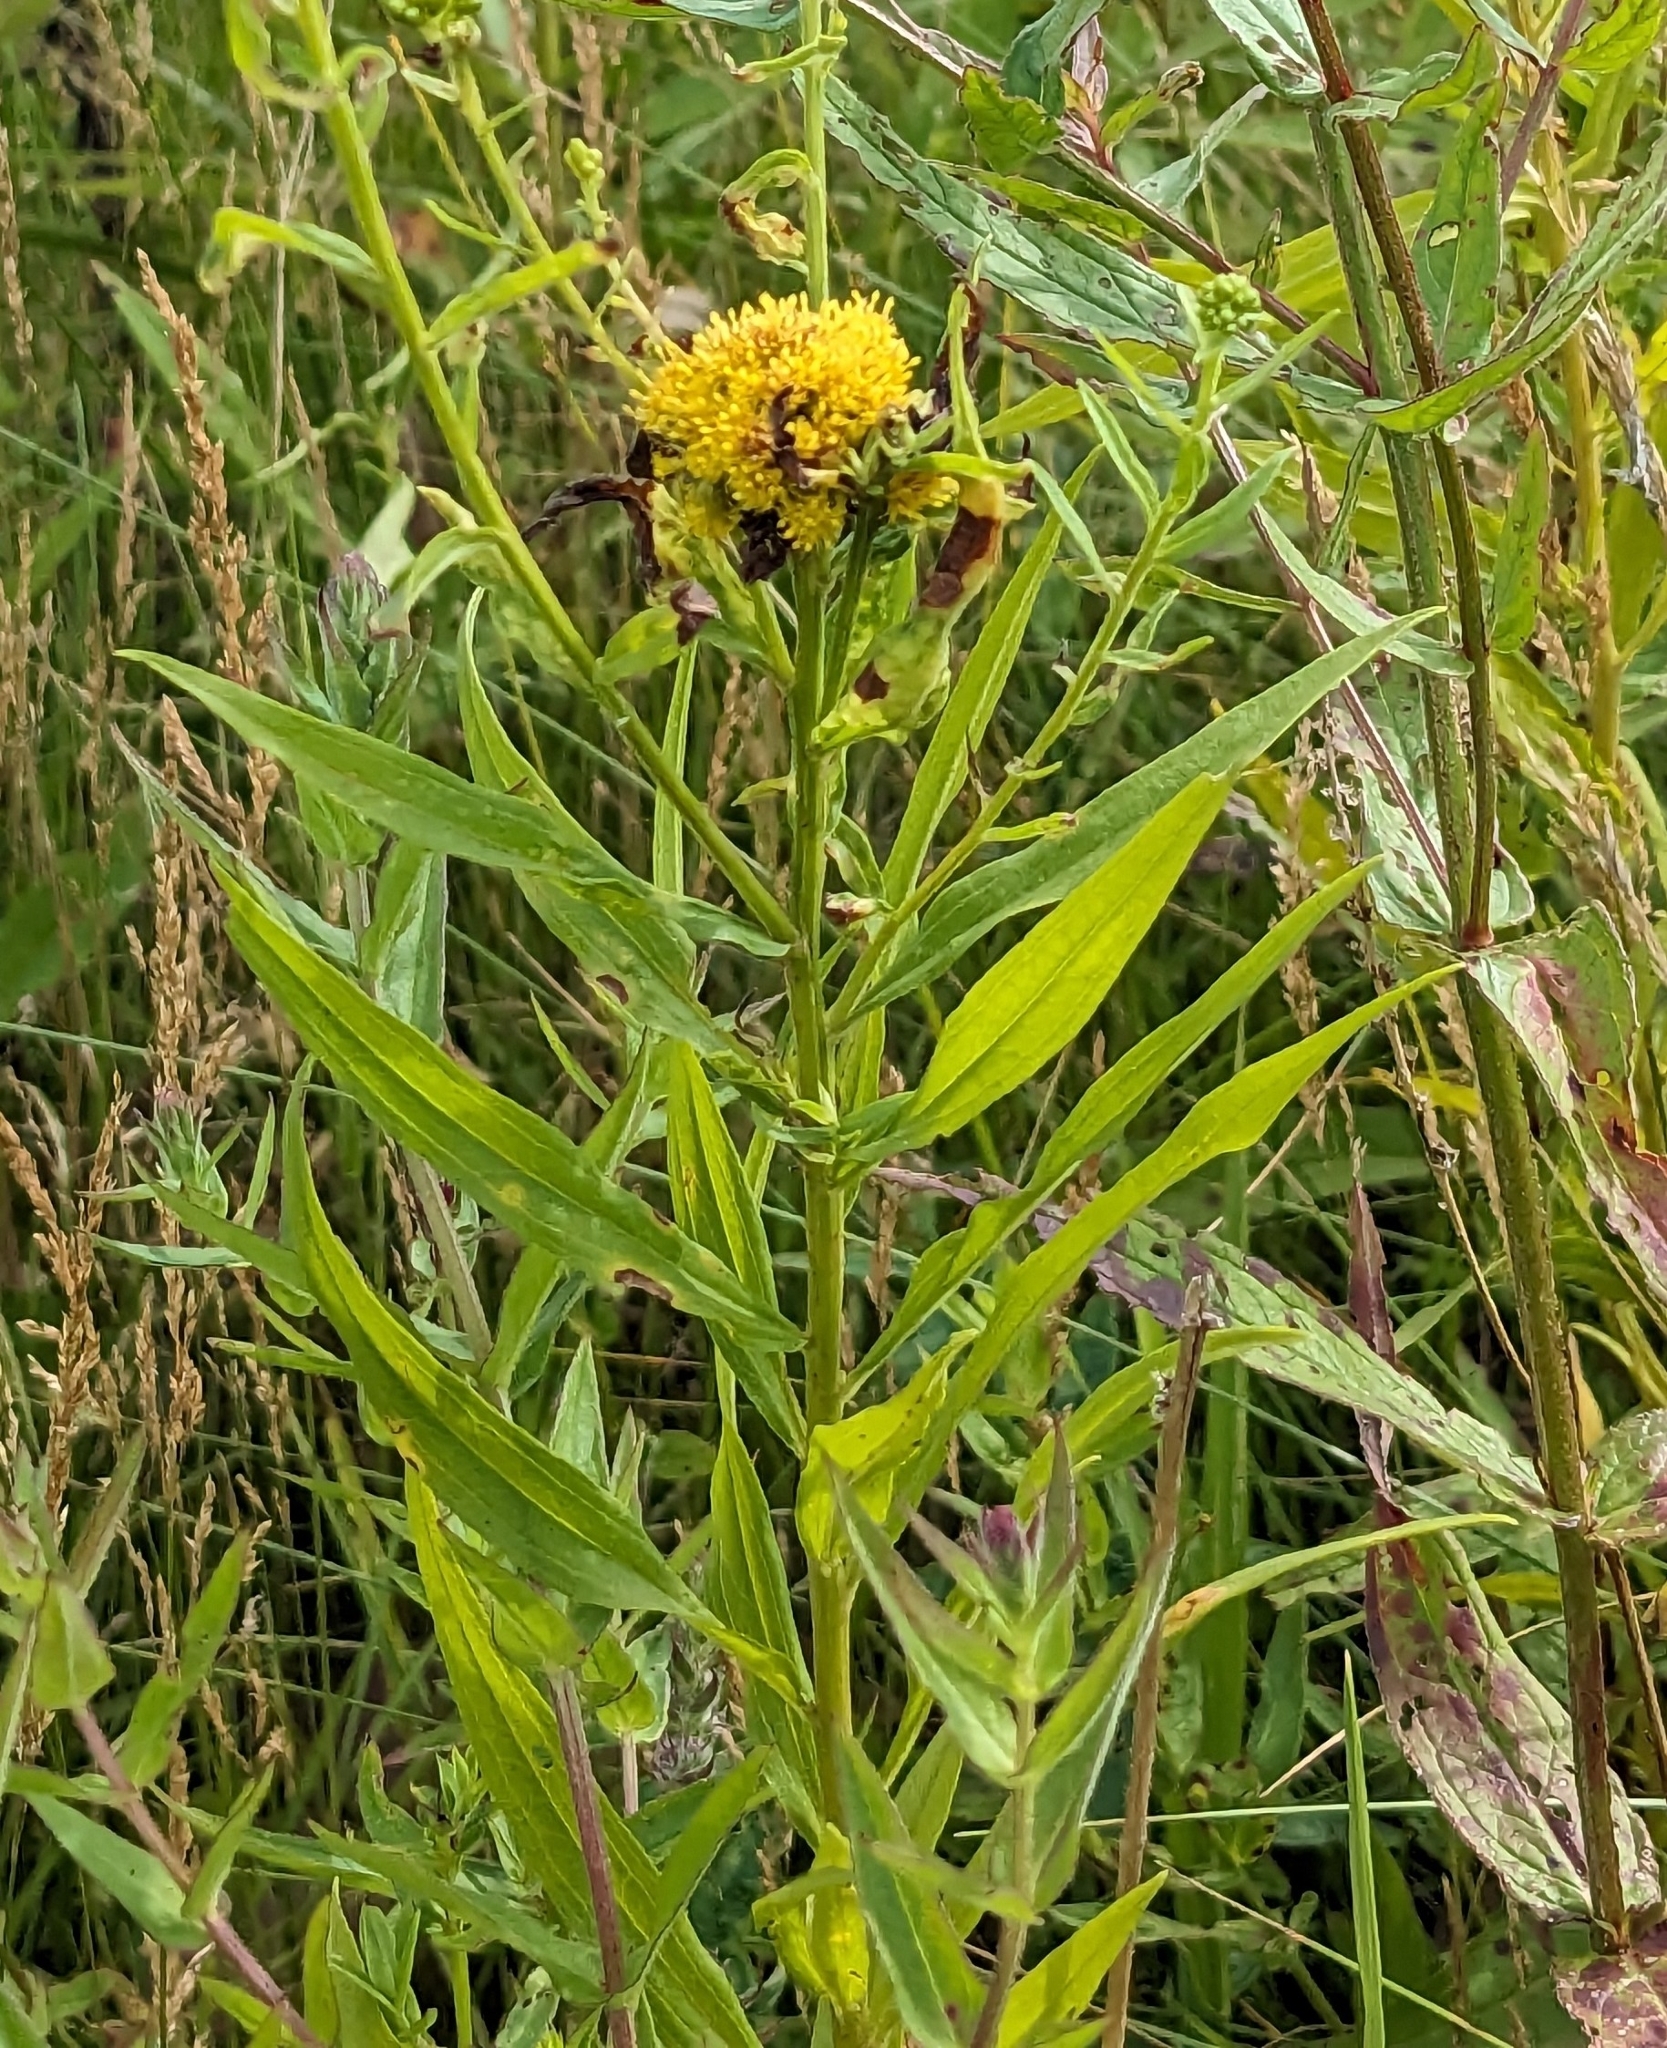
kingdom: Plantae
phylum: Tracheophyta
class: Magnoliopsida
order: Asterales
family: Asteraceae
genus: Solidago
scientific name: Solidago
